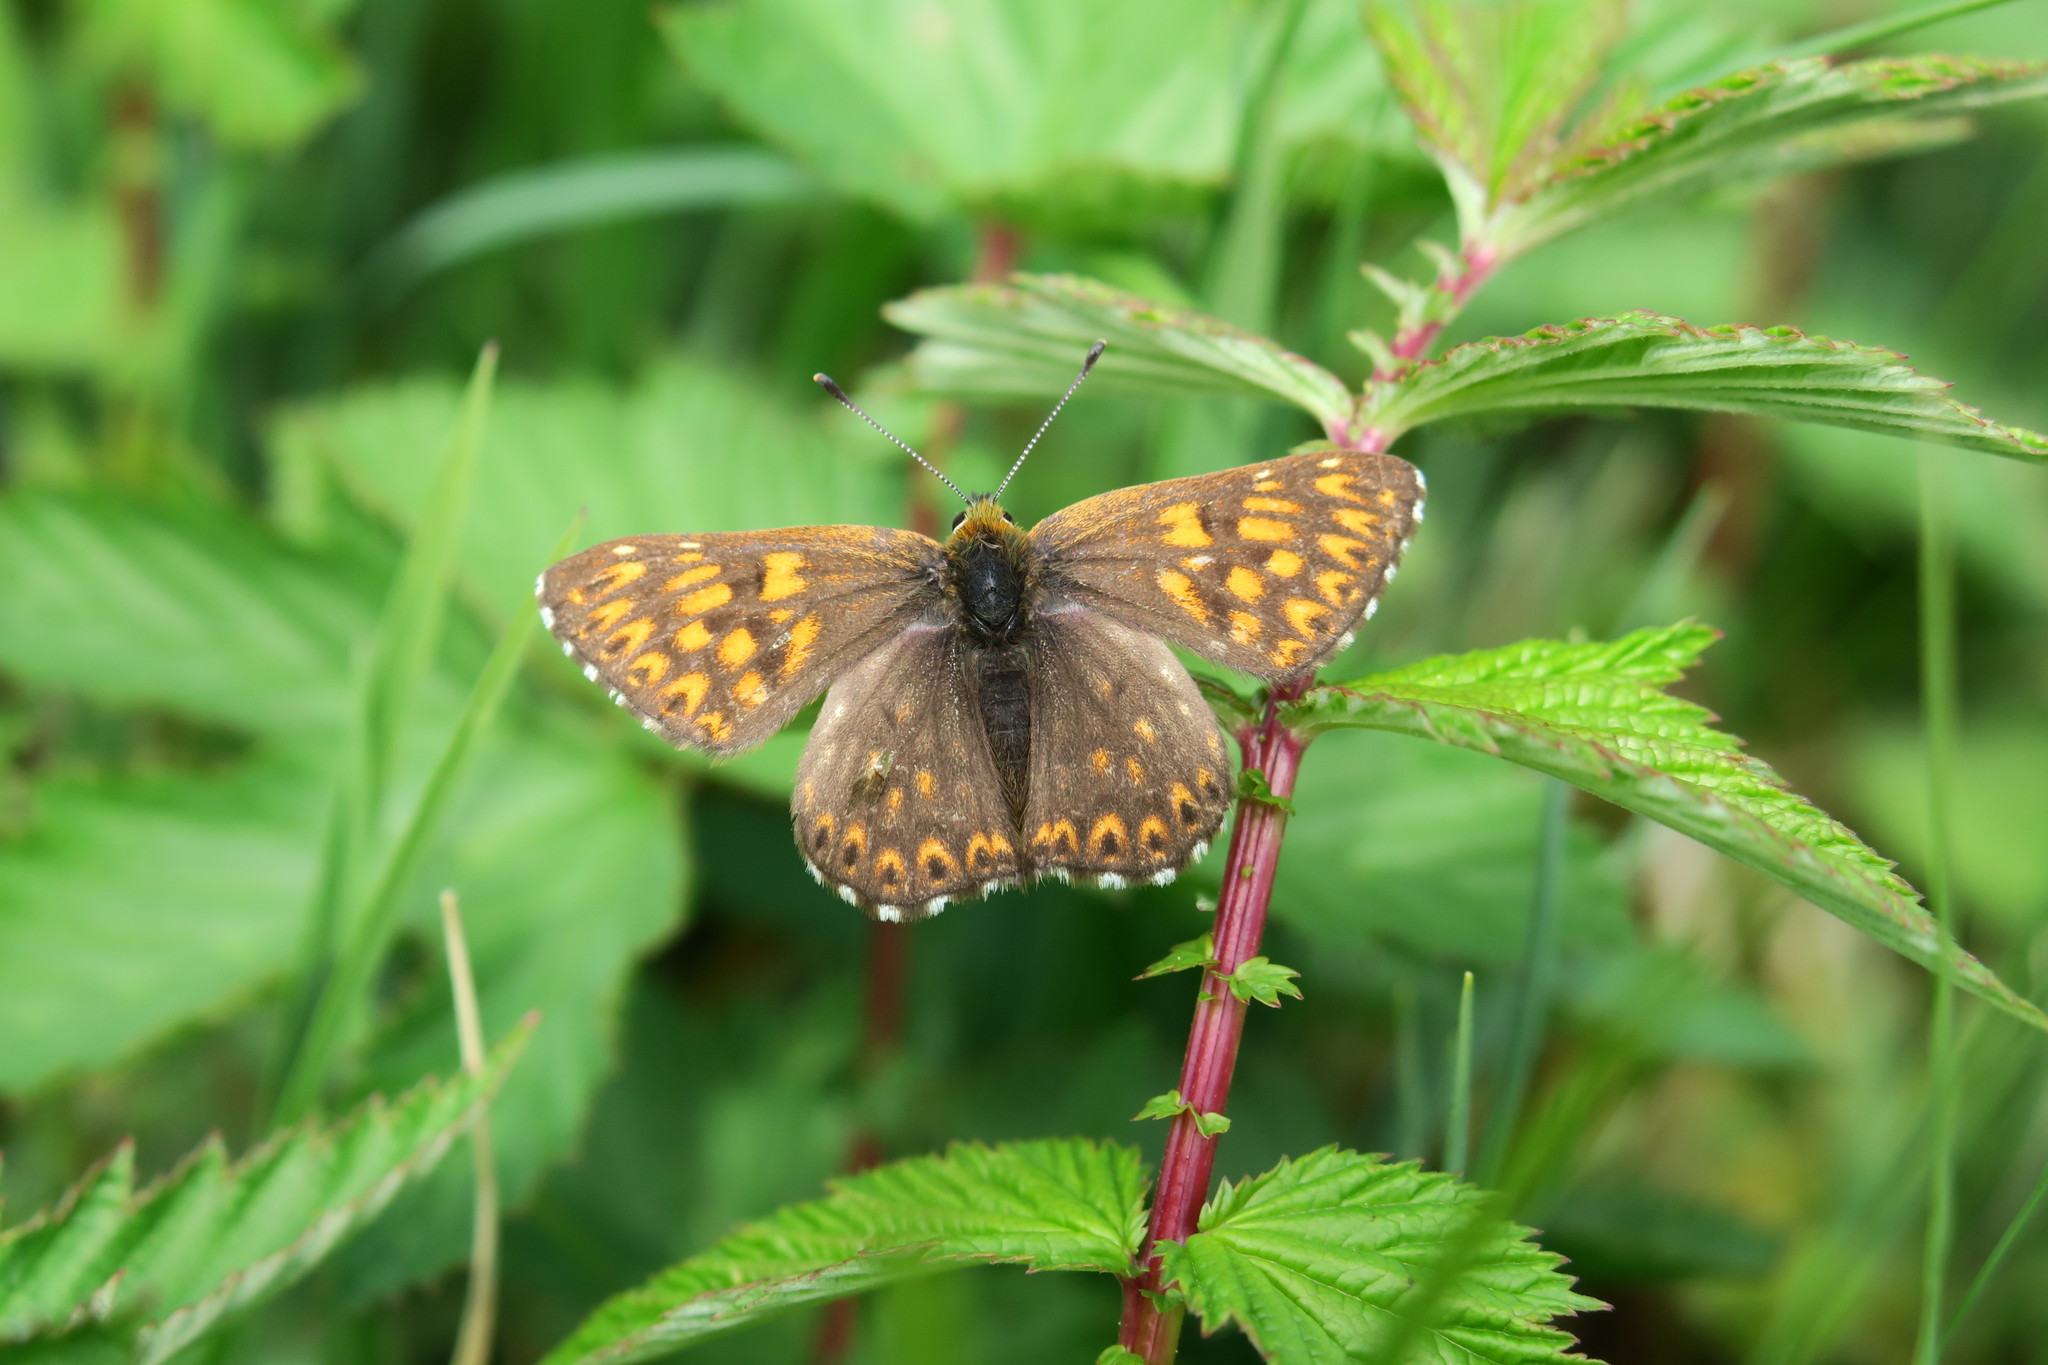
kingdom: Animalia
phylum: Arthropoda
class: Insecta
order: Lepidoptera
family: Riodinidae
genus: Hamearis
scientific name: Hamearis lucina
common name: Duke of burgundy fritillary
